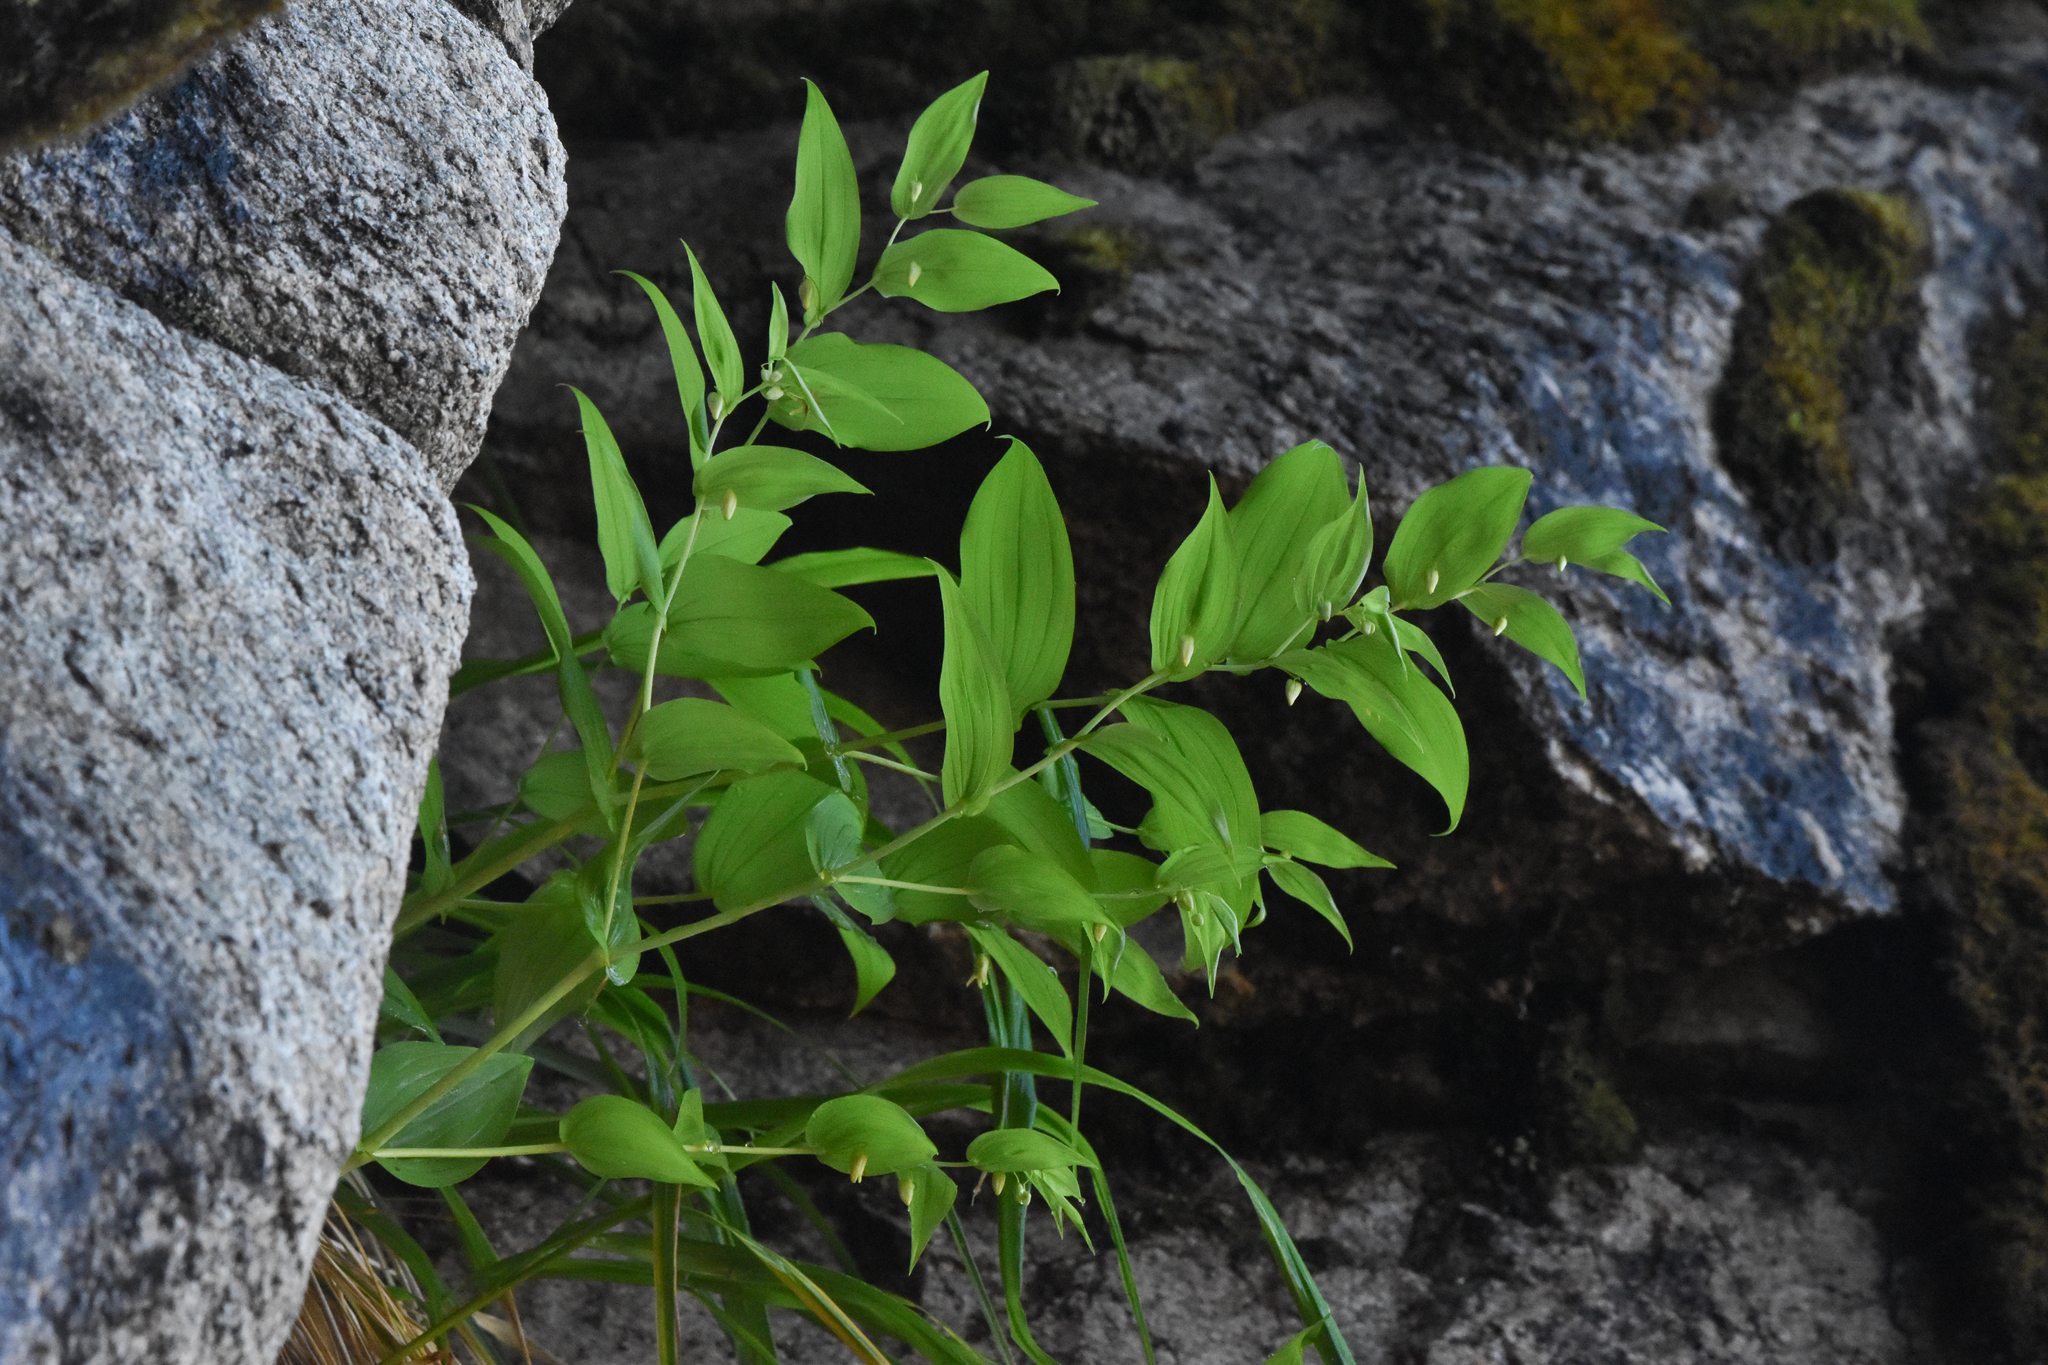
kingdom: Plantae
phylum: Tracheophyta
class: Liliopsida
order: Liliales
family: Liliaceae
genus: Streptopus
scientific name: Streptopus amplexifolius
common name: Clasp twisted stalk
